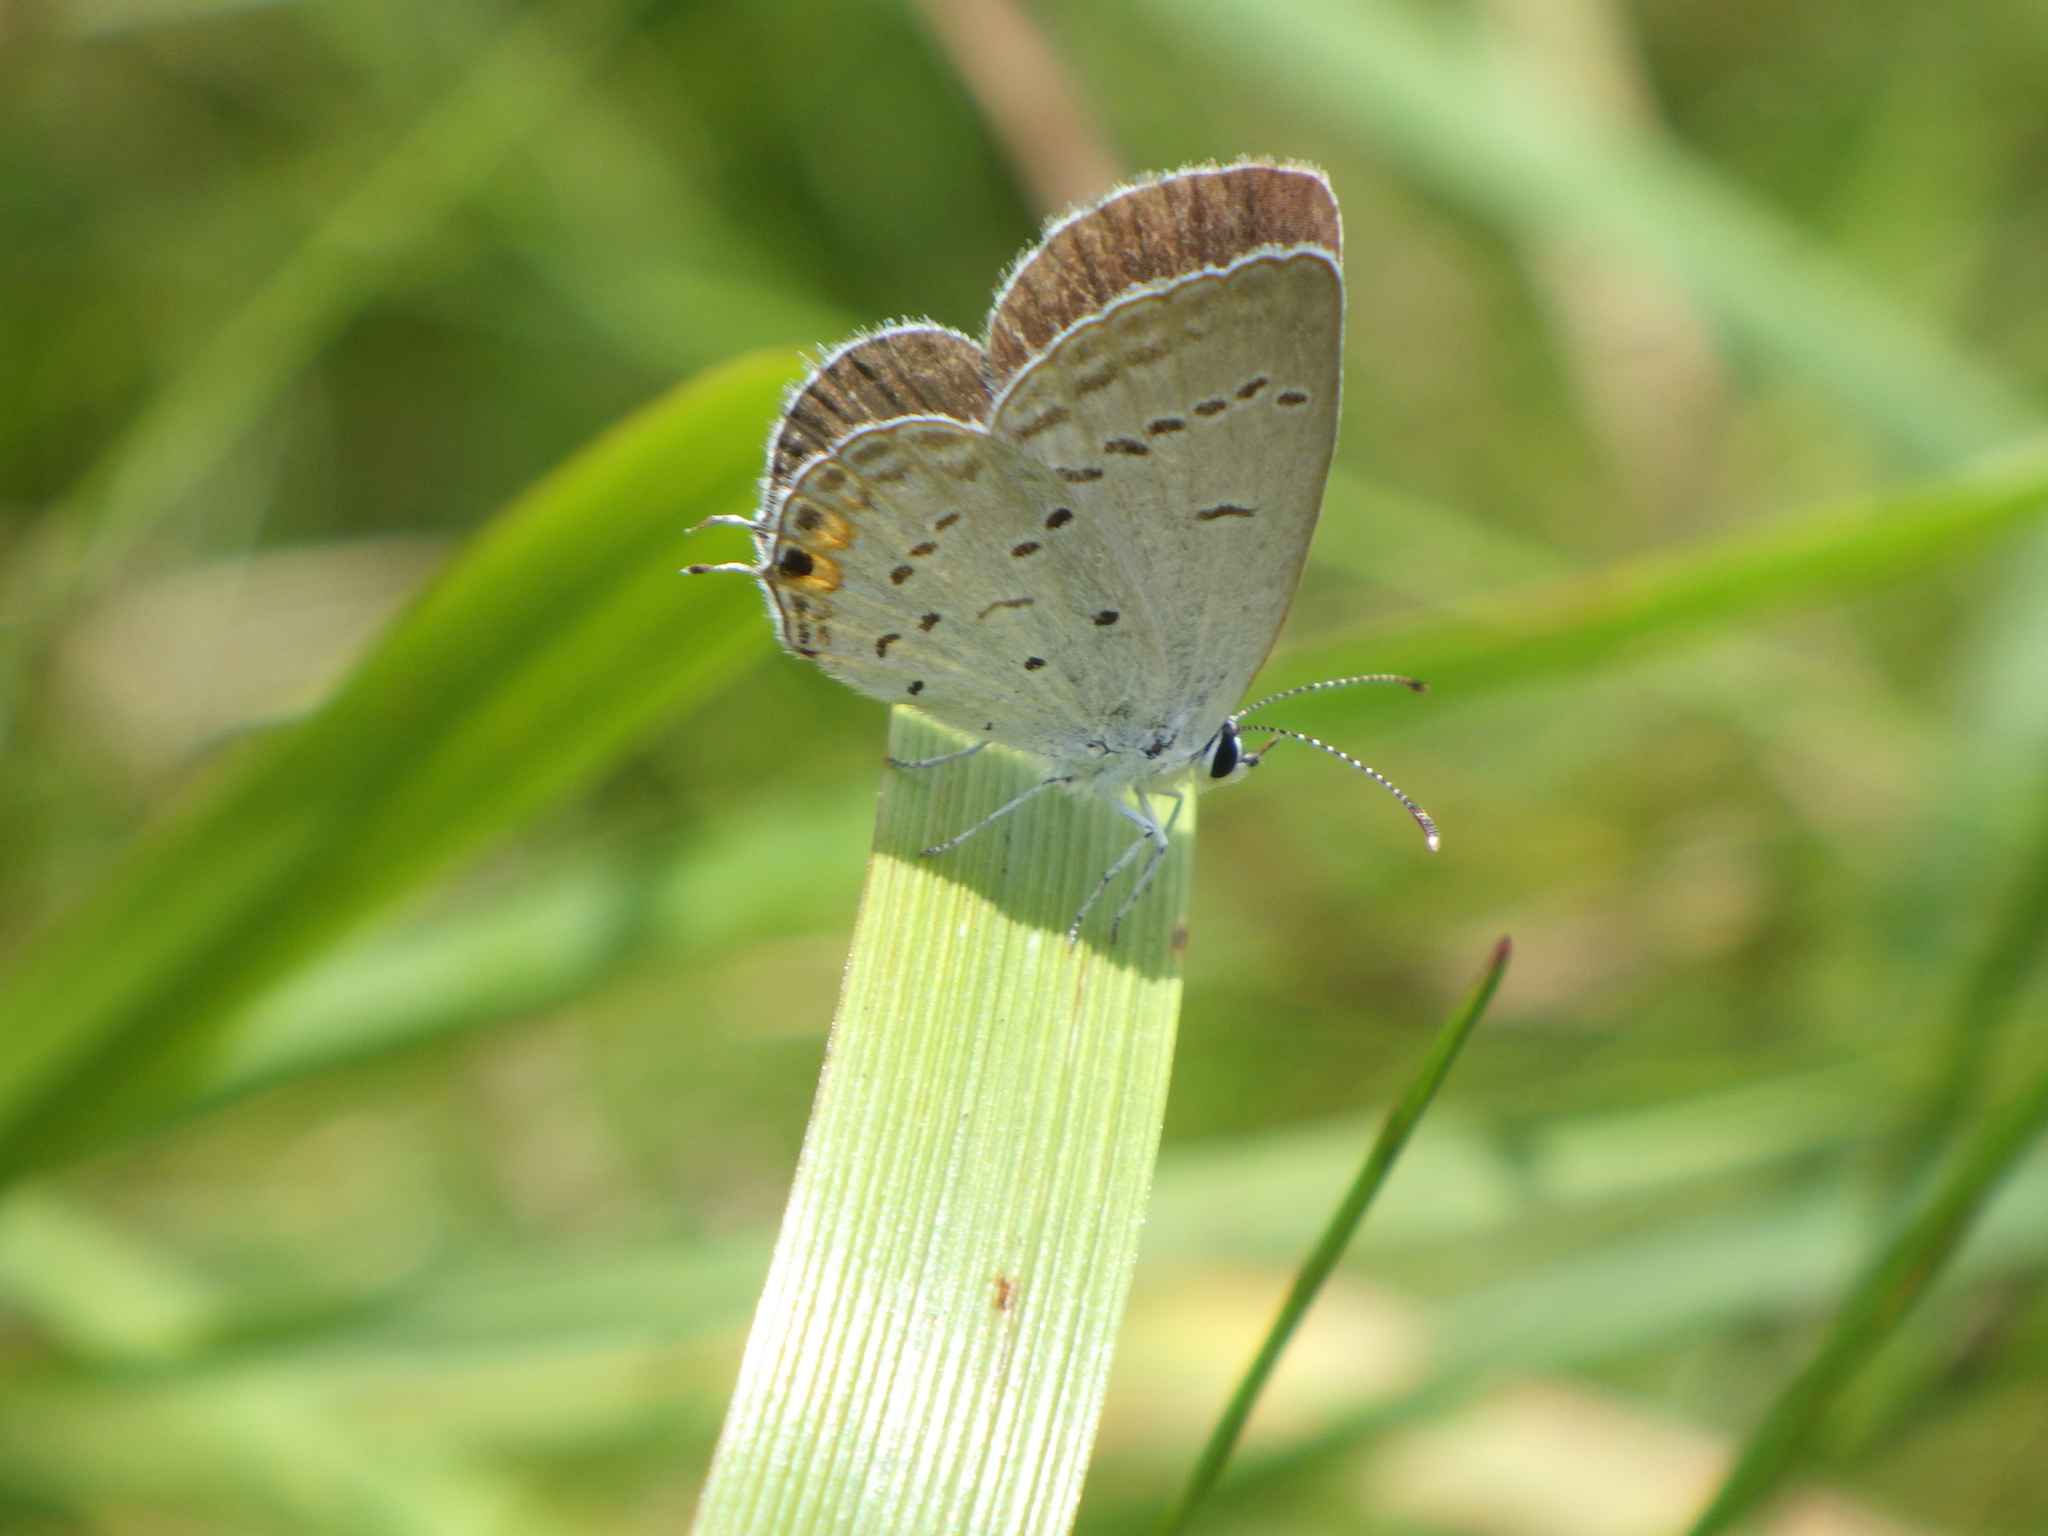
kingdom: Animalia
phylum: Arthropoda
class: Insecta
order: Lepidoptera
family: Lycaenidae
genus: Elkalyce
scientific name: Elkalyce comyntas
